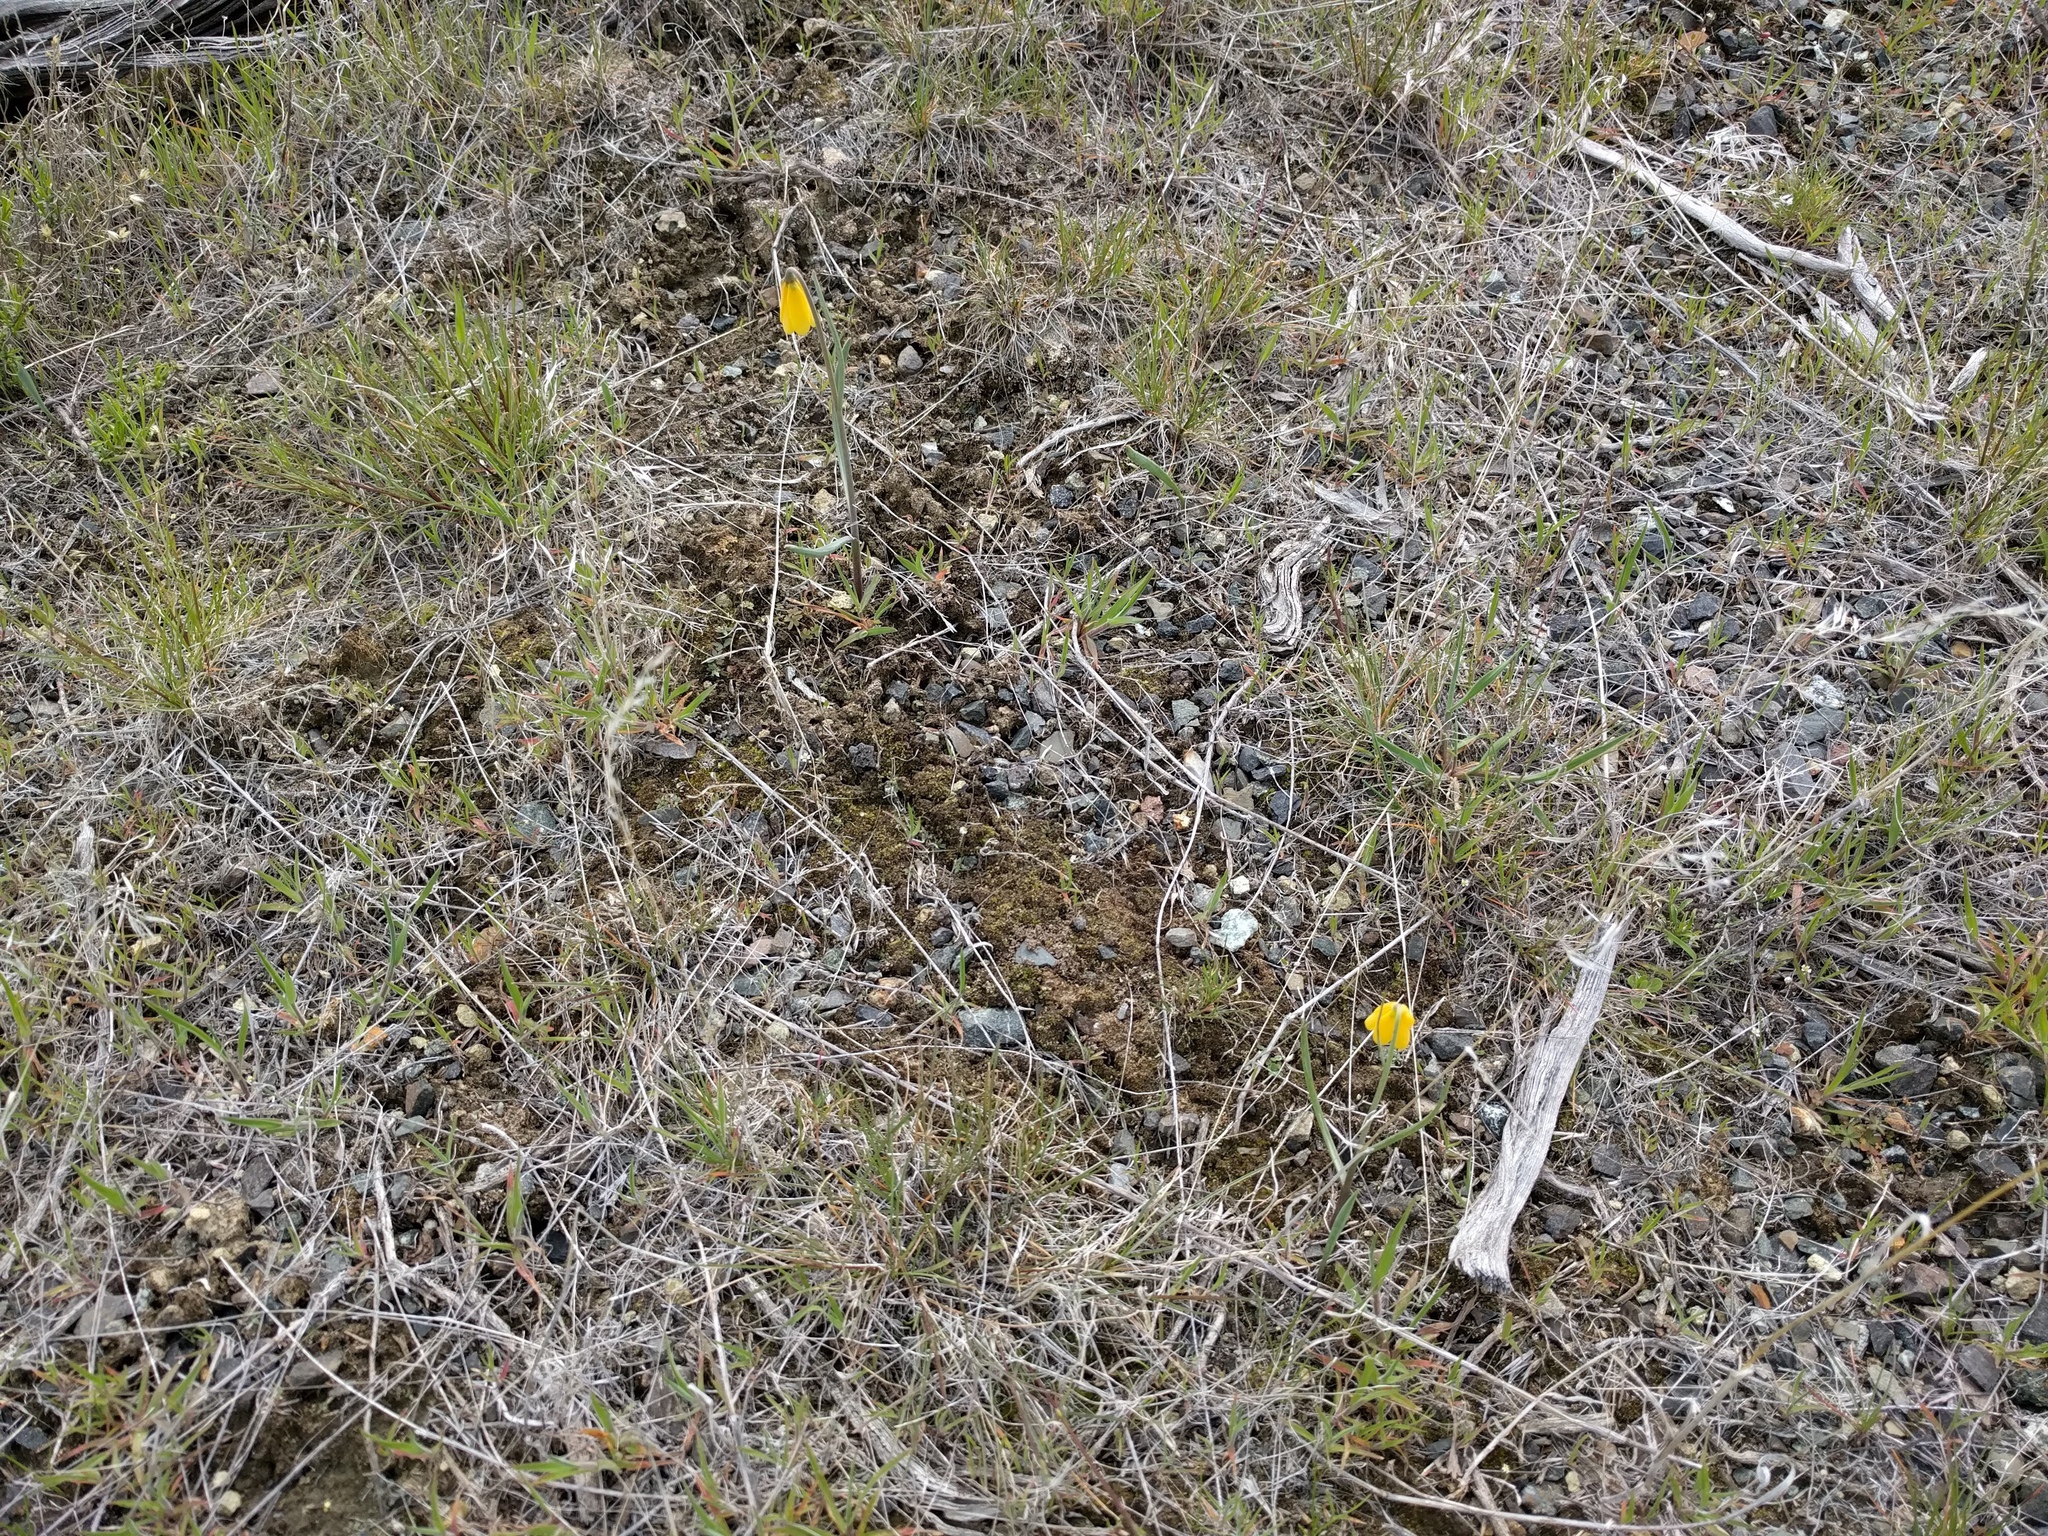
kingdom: Plantae
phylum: Tracheophyta
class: Liliopsida
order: Liliales
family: Liliaceae
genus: Fritillaria
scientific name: Fritillaria pudica
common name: Yellow fritillary
